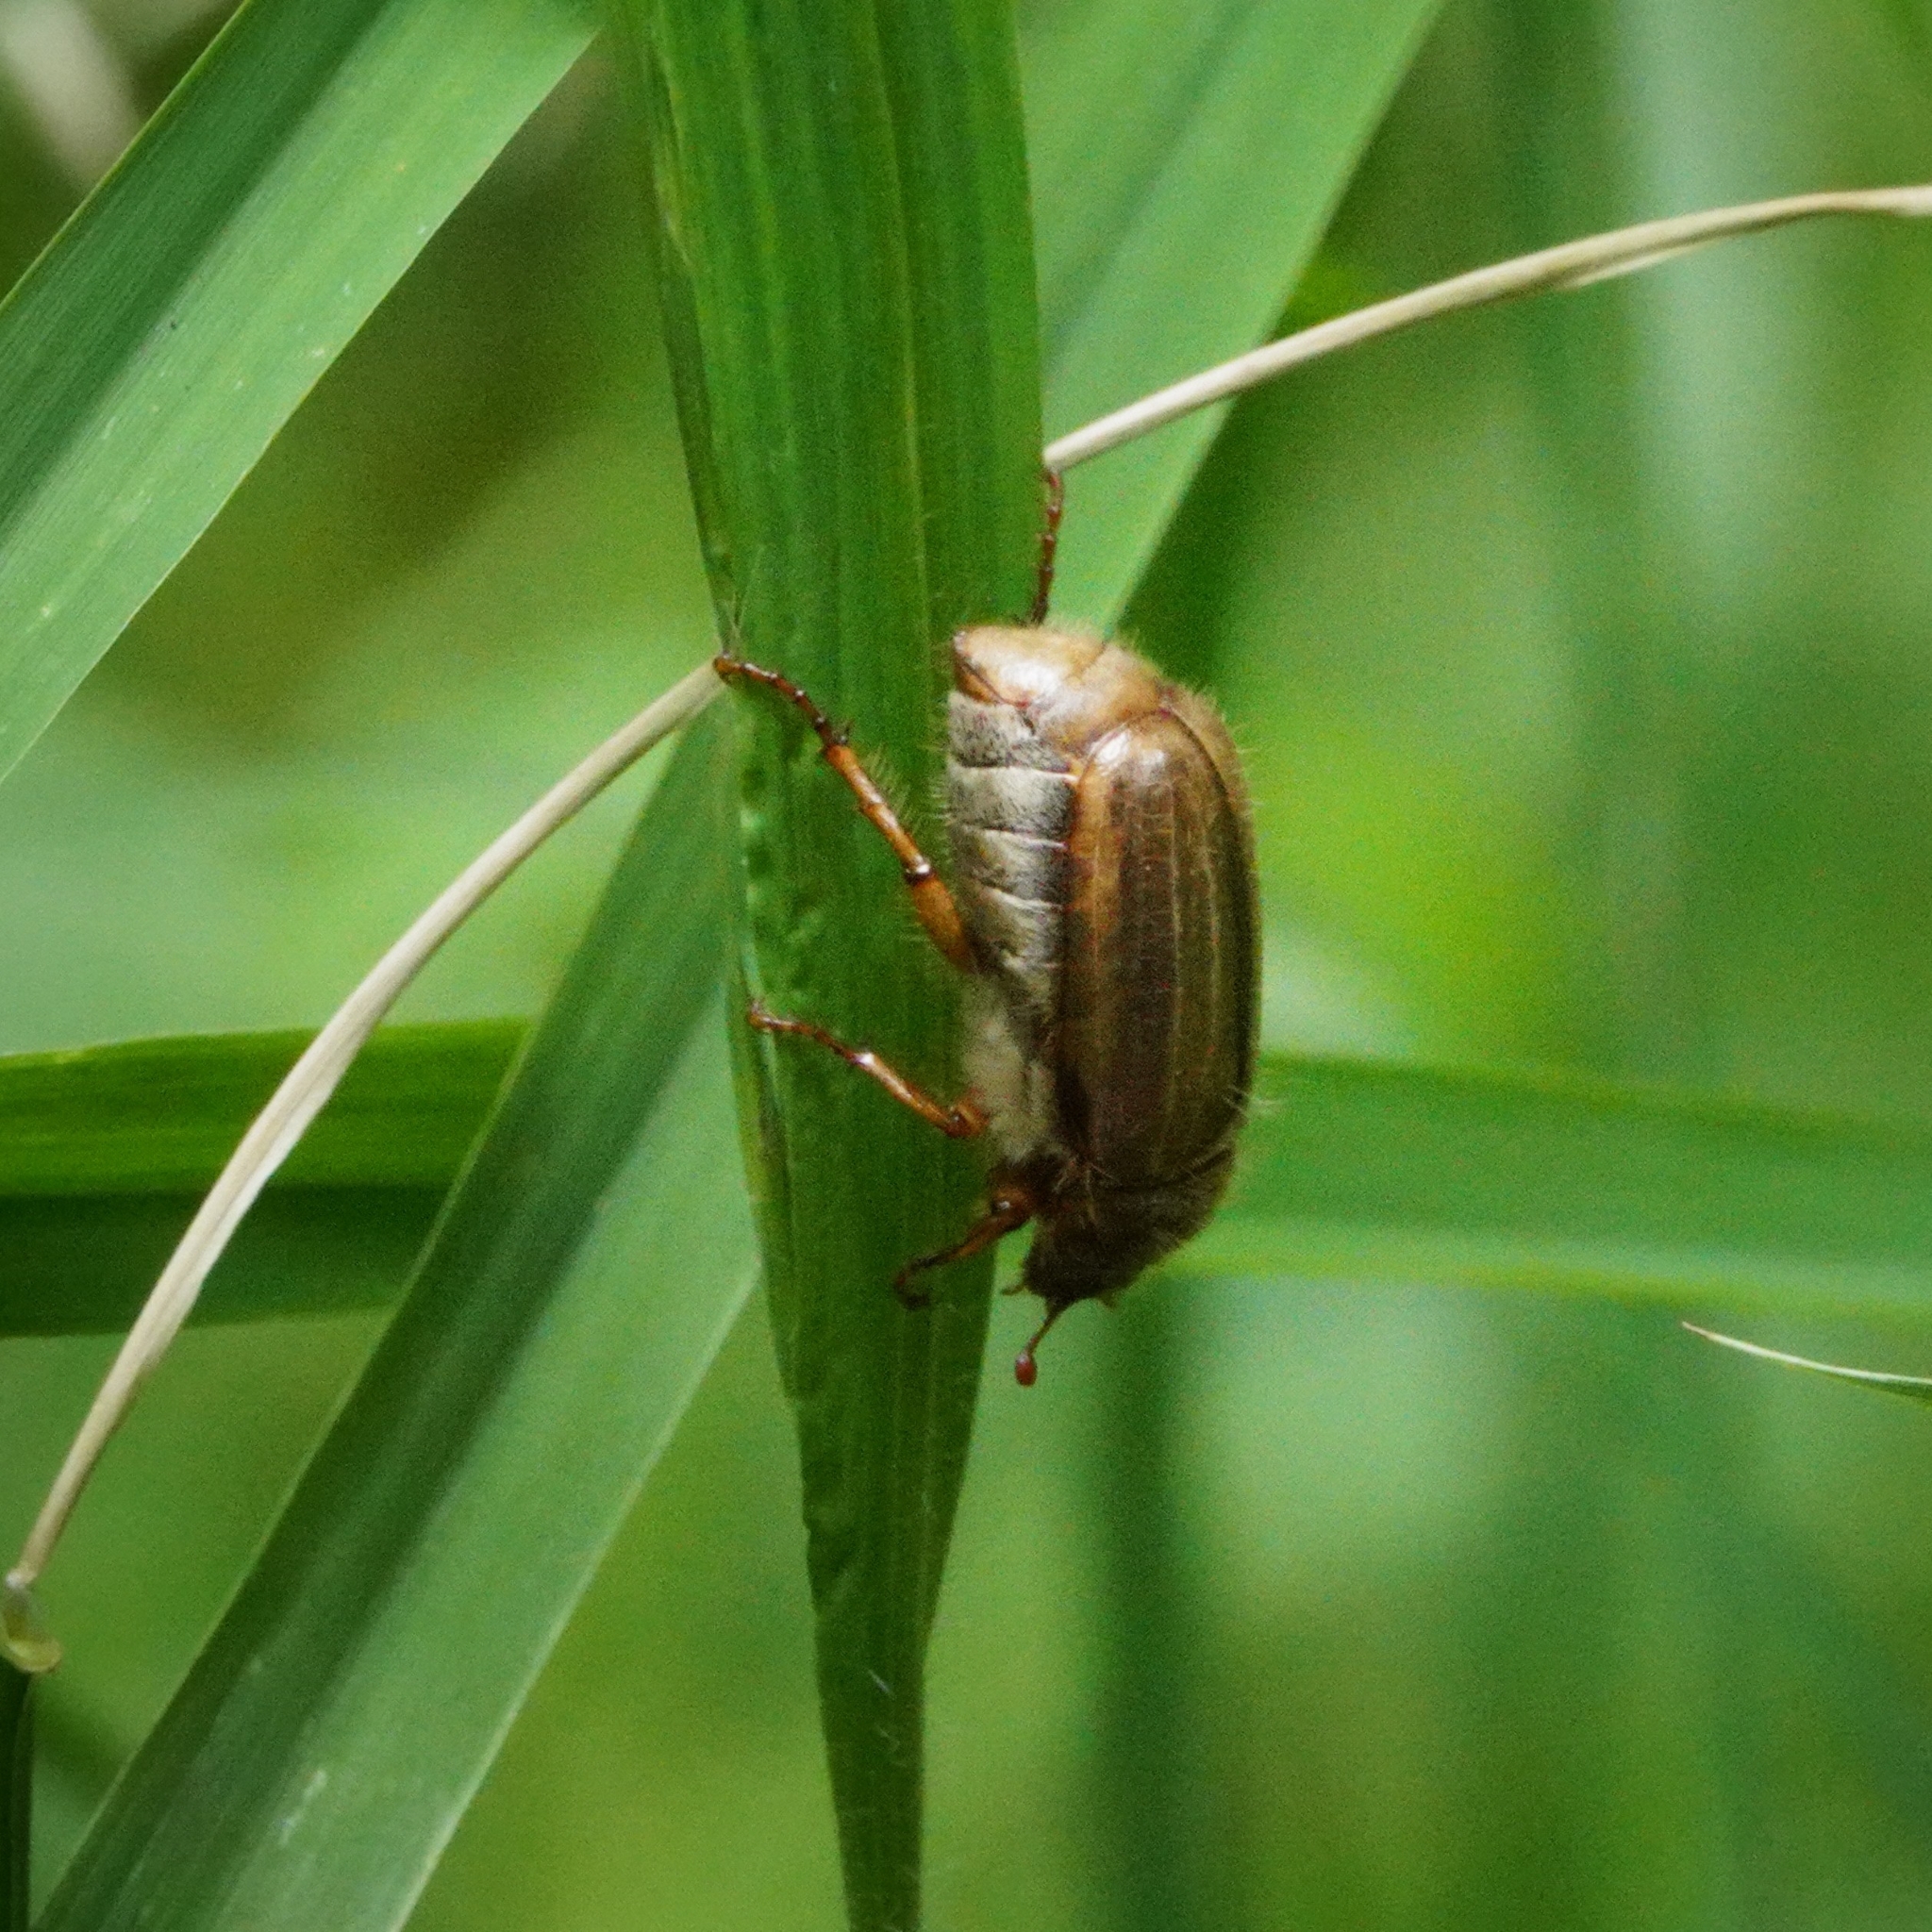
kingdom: Animalia
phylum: Arthropoda
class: Insecta
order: Coleoptera
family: Scarabaeidae
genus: Amphimallon
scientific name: Amphimallon solstitiale
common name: Summer chafer
